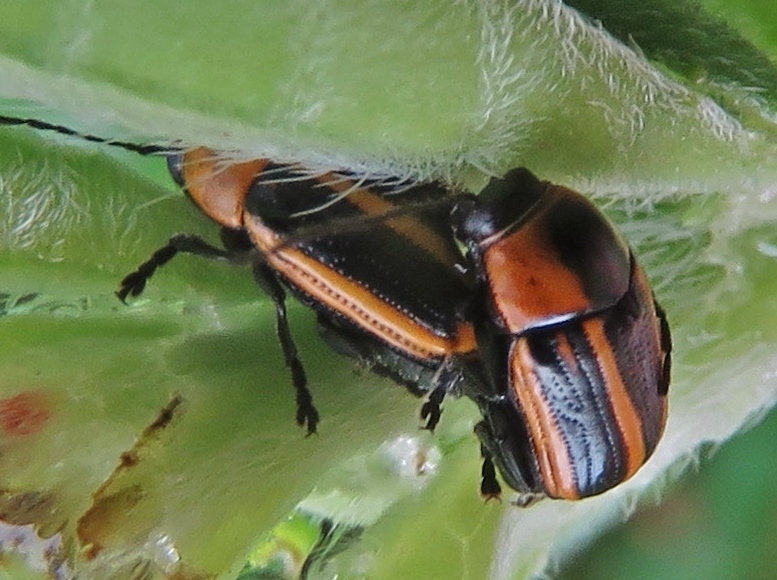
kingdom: Animalia
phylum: Arthropoda
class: Insecta
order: Coleoptera
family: Chrysomelidae
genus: Bassareus
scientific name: Bassareus lituratus
